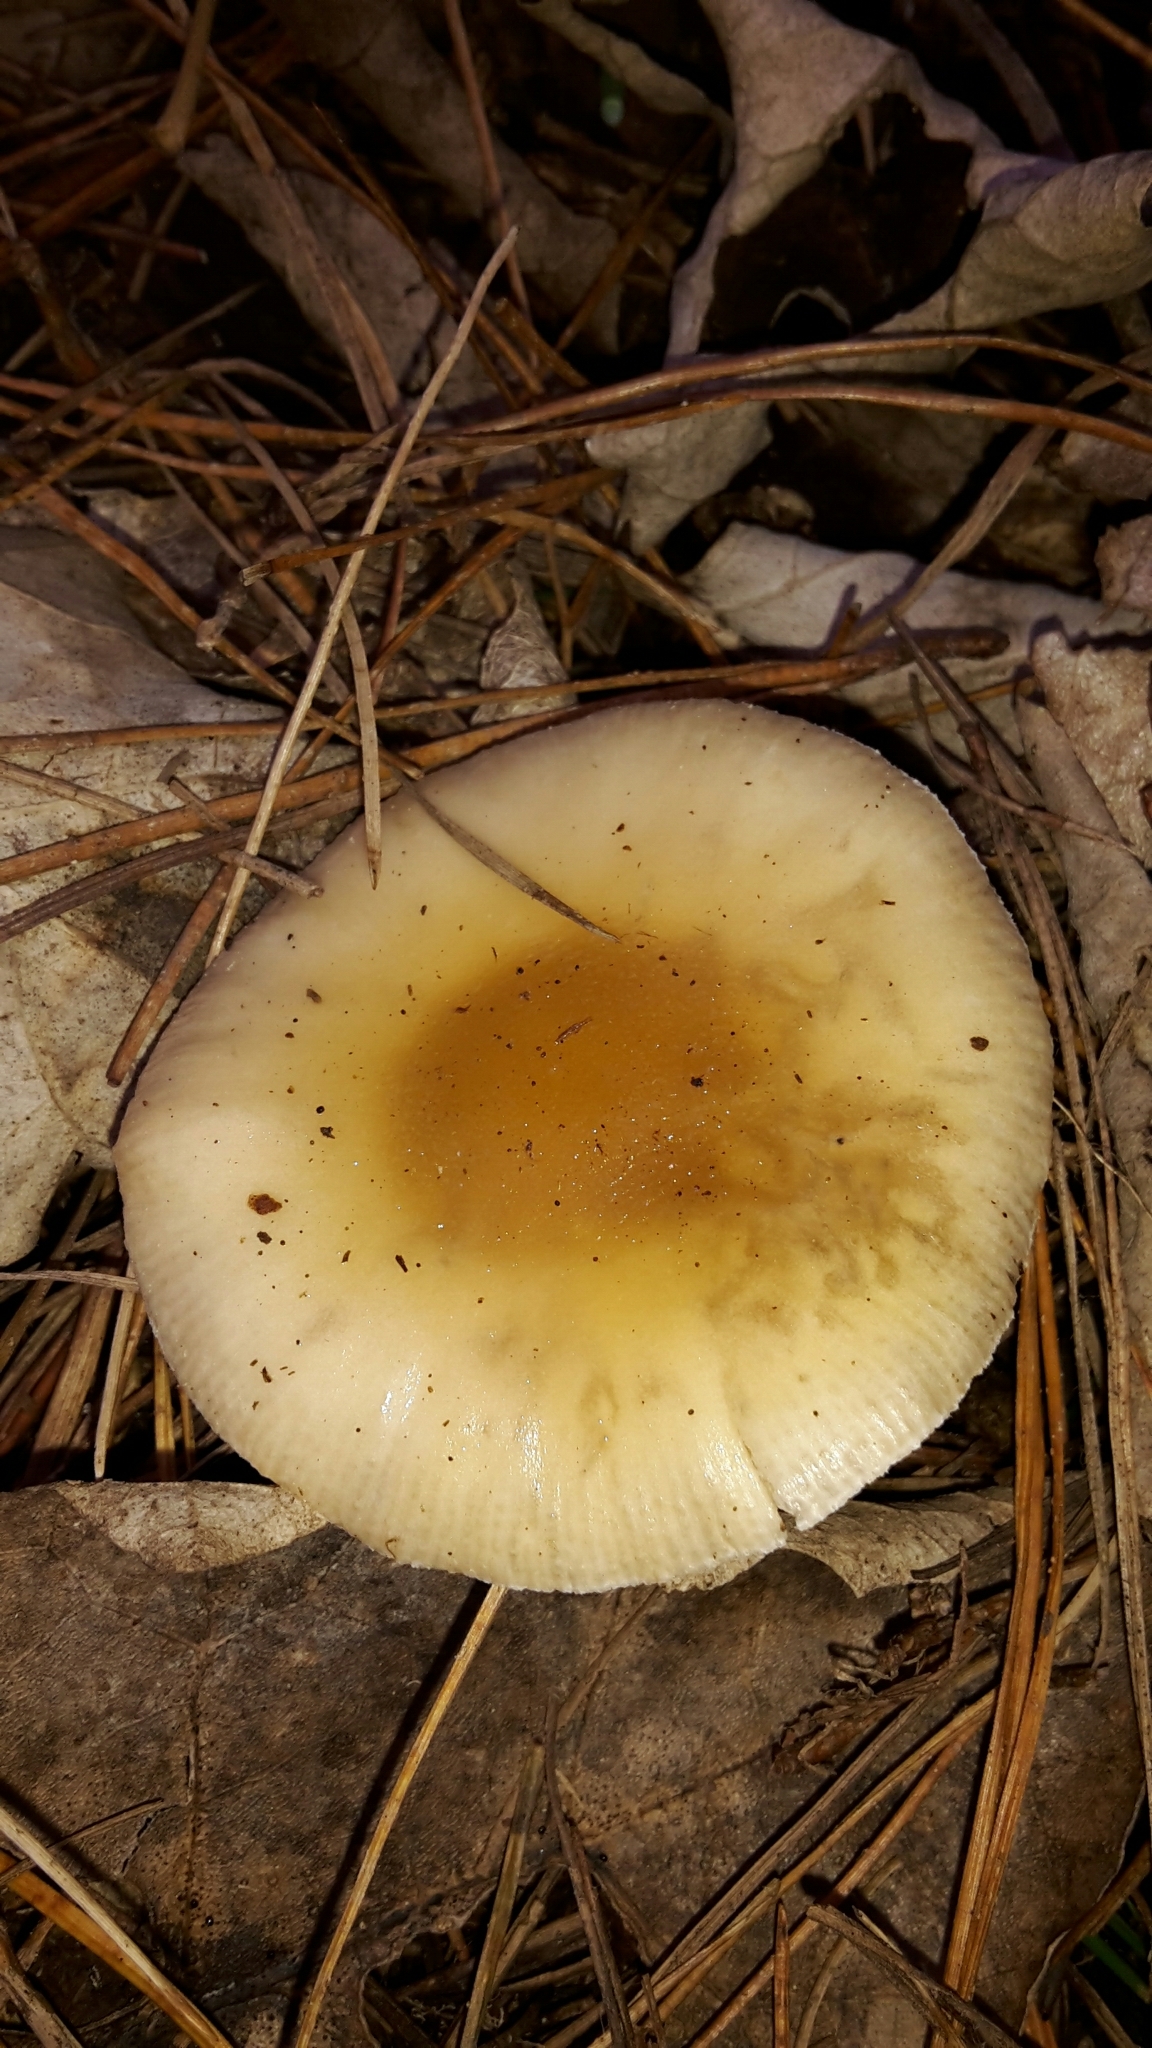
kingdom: Fungi
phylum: Basidiomycota
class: Agaricomycetes
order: Agaricales
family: Amanitaceae
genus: Amanita
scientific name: Amanita gemmata
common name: Jewelled amanita
